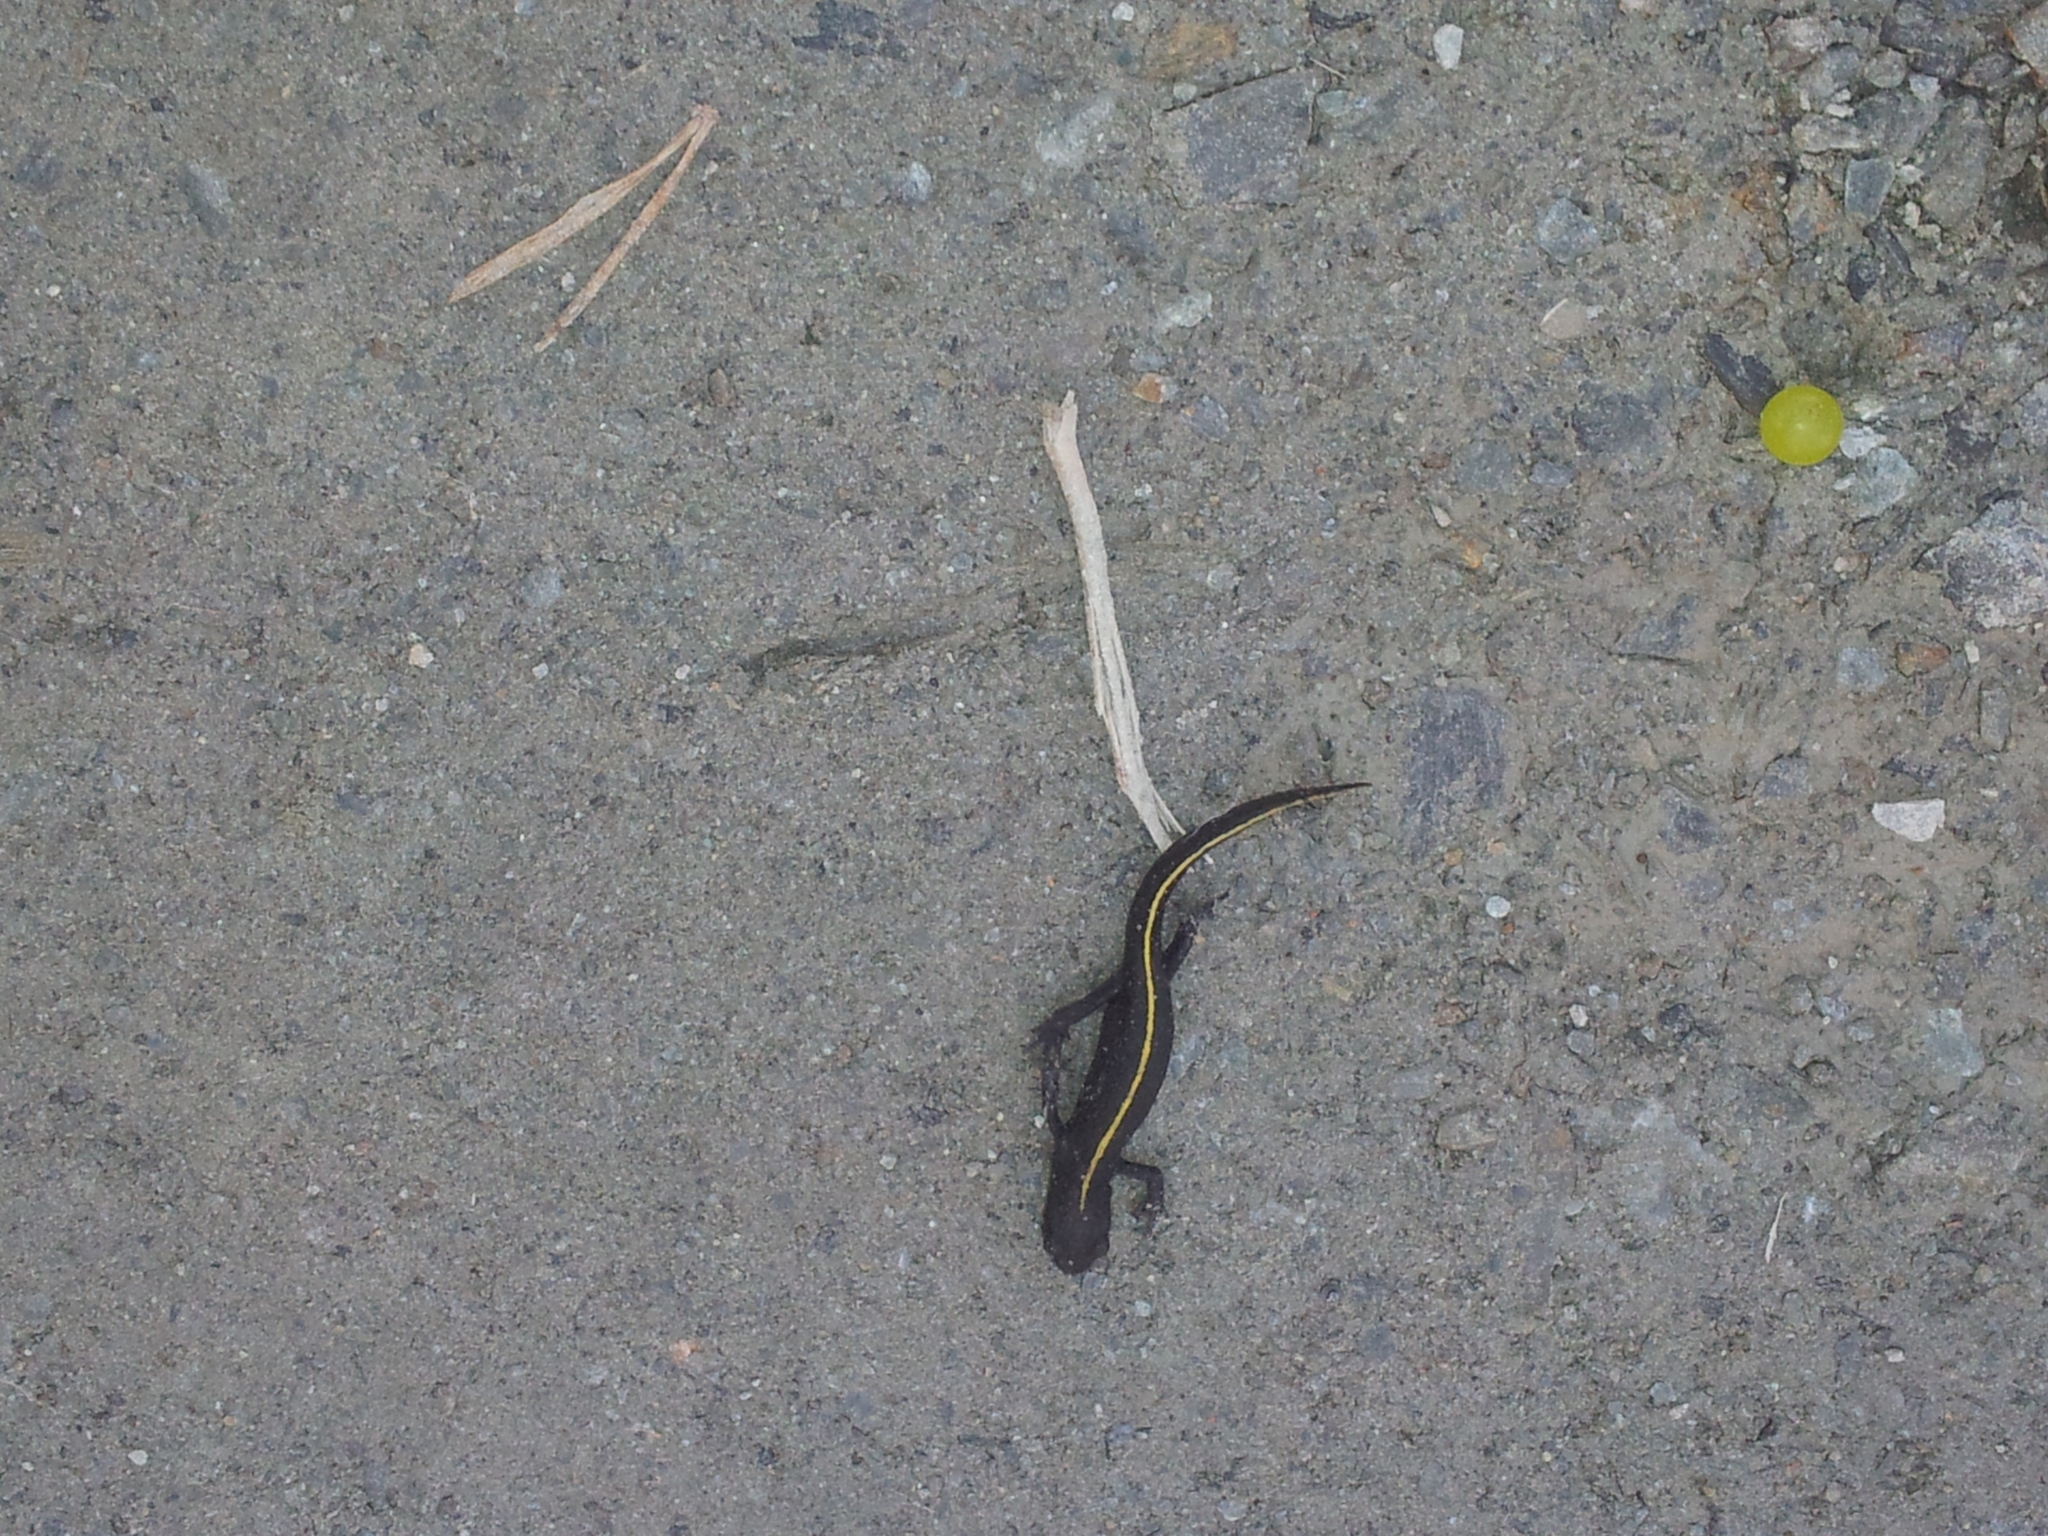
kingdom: Animalia
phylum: Chordata
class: Amphibia
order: Caudata
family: Salamandridae
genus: Triturus
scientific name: Triturus carnifex
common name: Italian crested newt
